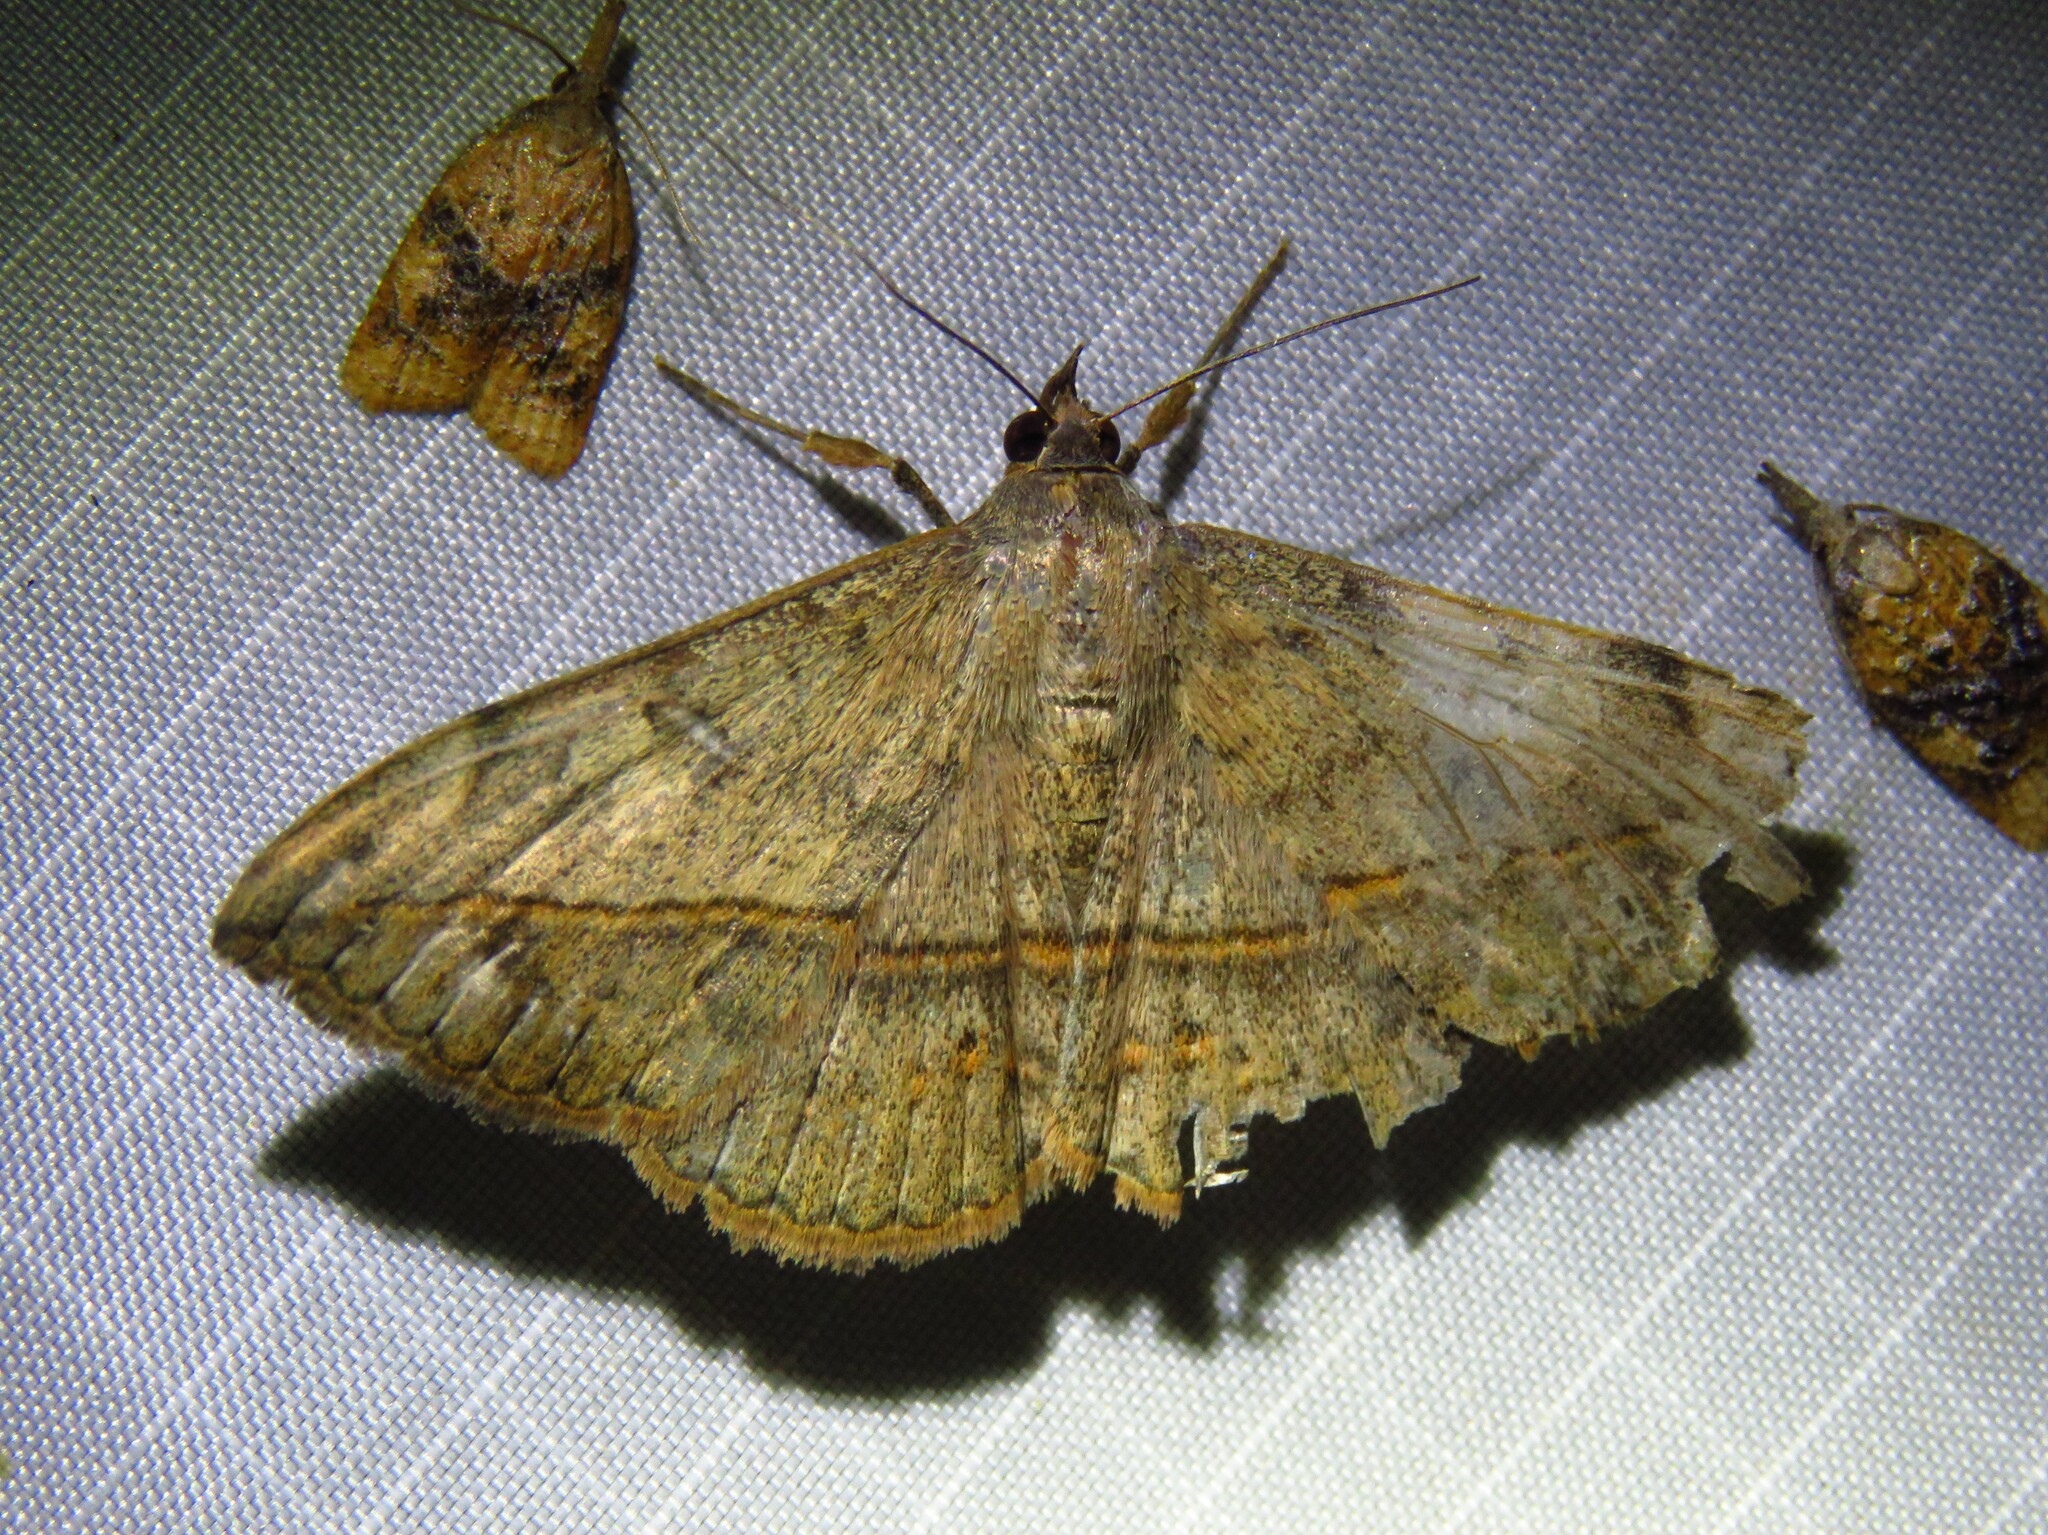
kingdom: Animalia
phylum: Arthropoda
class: Insecta
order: Lepidoptera
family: Erebidae
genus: Anticarsia
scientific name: Anticarsia gemmatalis
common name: Cutworm moth
